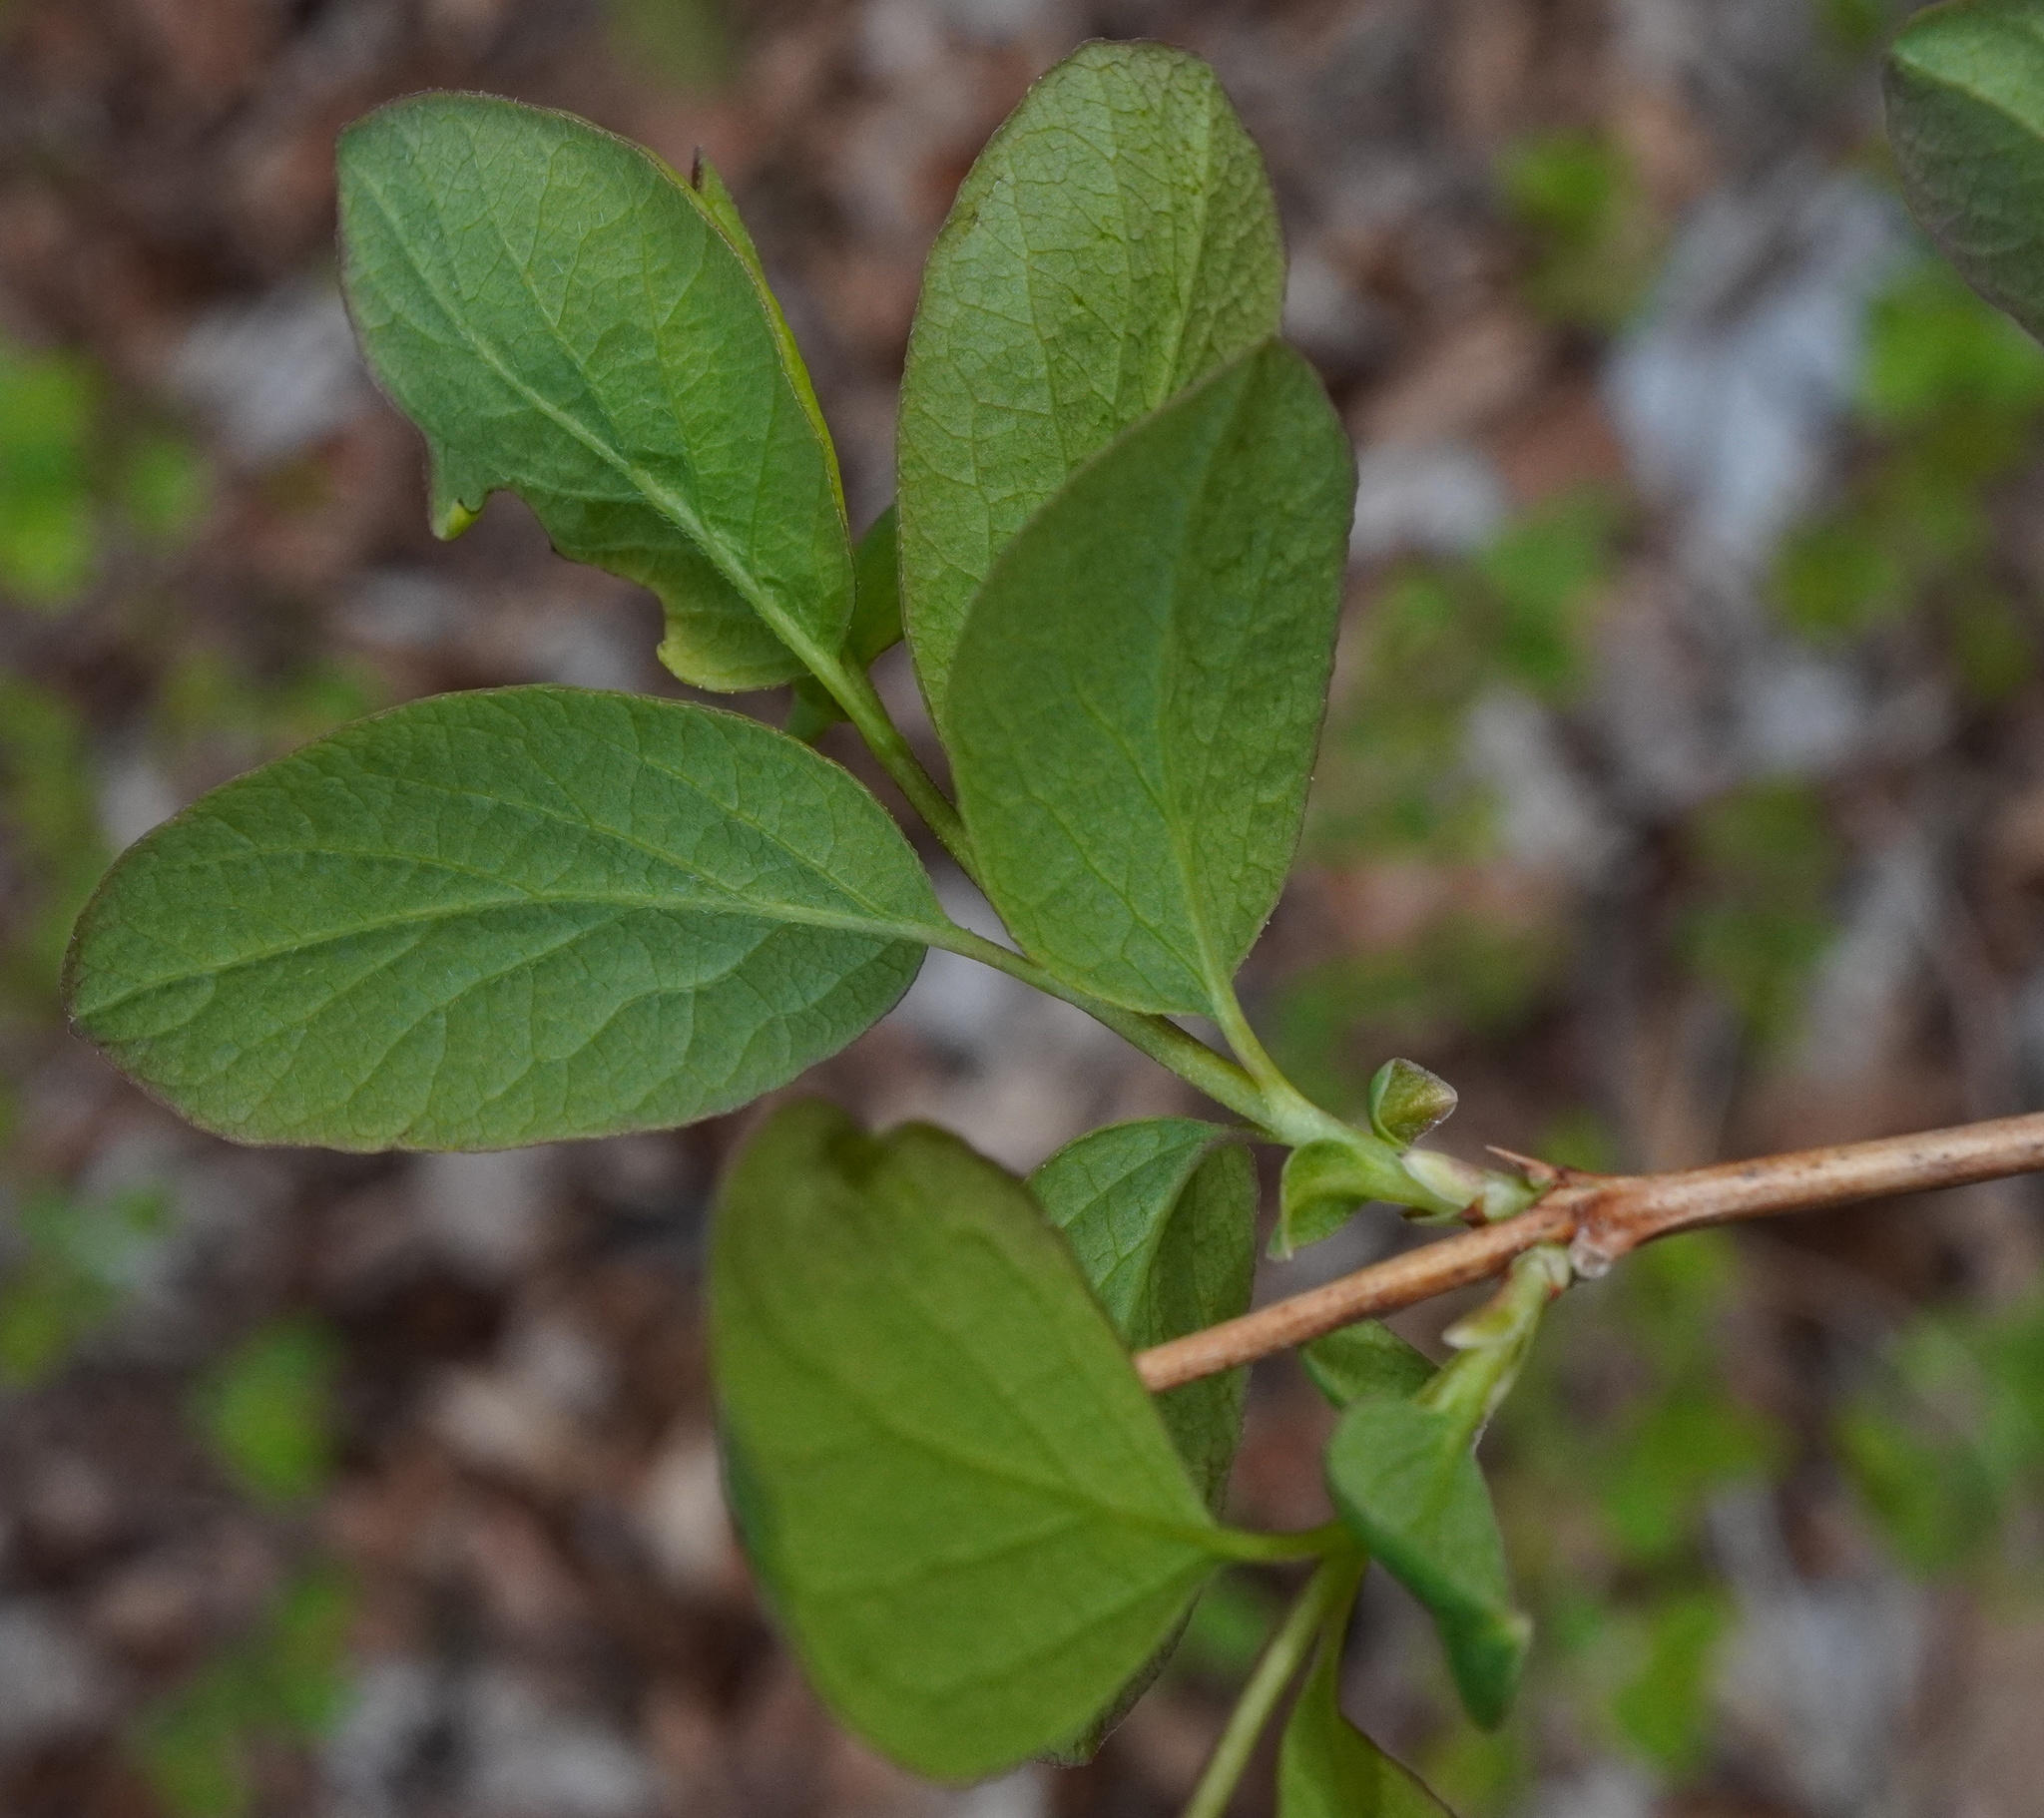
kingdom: Plantae
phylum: Tracheophyta
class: Magnoliopsida
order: Dipsacales
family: Caprifoliaceae
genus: Symphoricarpos
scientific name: Symphoricarpos albus
